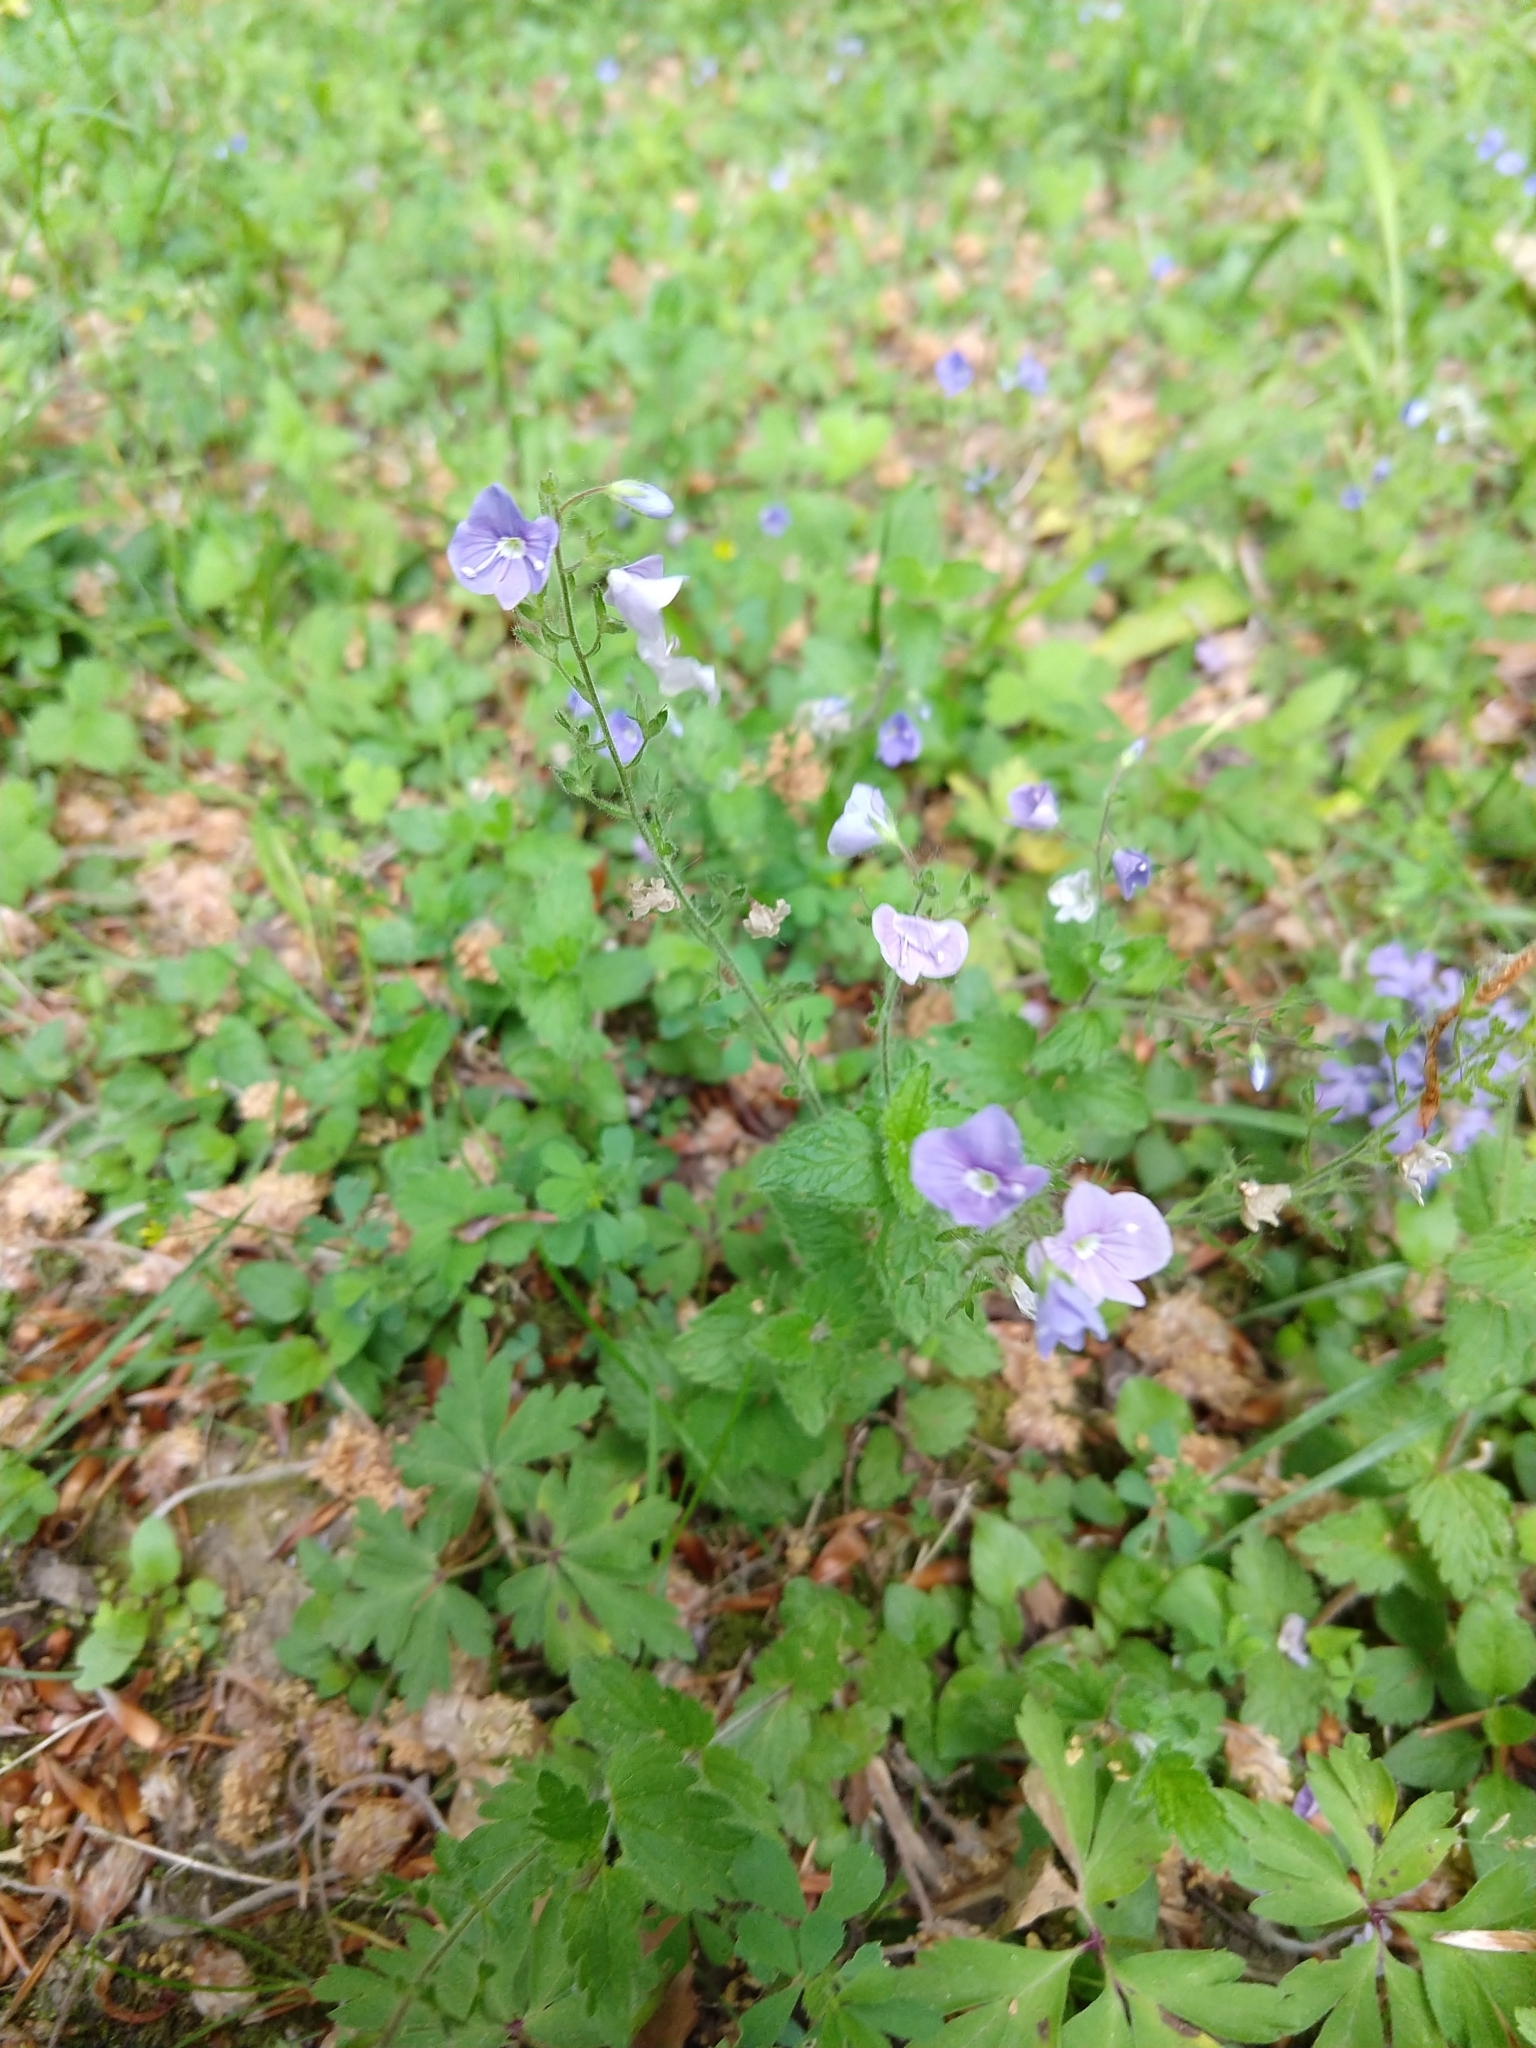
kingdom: Plantae
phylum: Tracheophyta
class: Magnoliopsida
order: Lamiales
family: Plantaginaceae
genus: Veronica
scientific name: Veronica chamaedrys
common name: Germander speedwell
